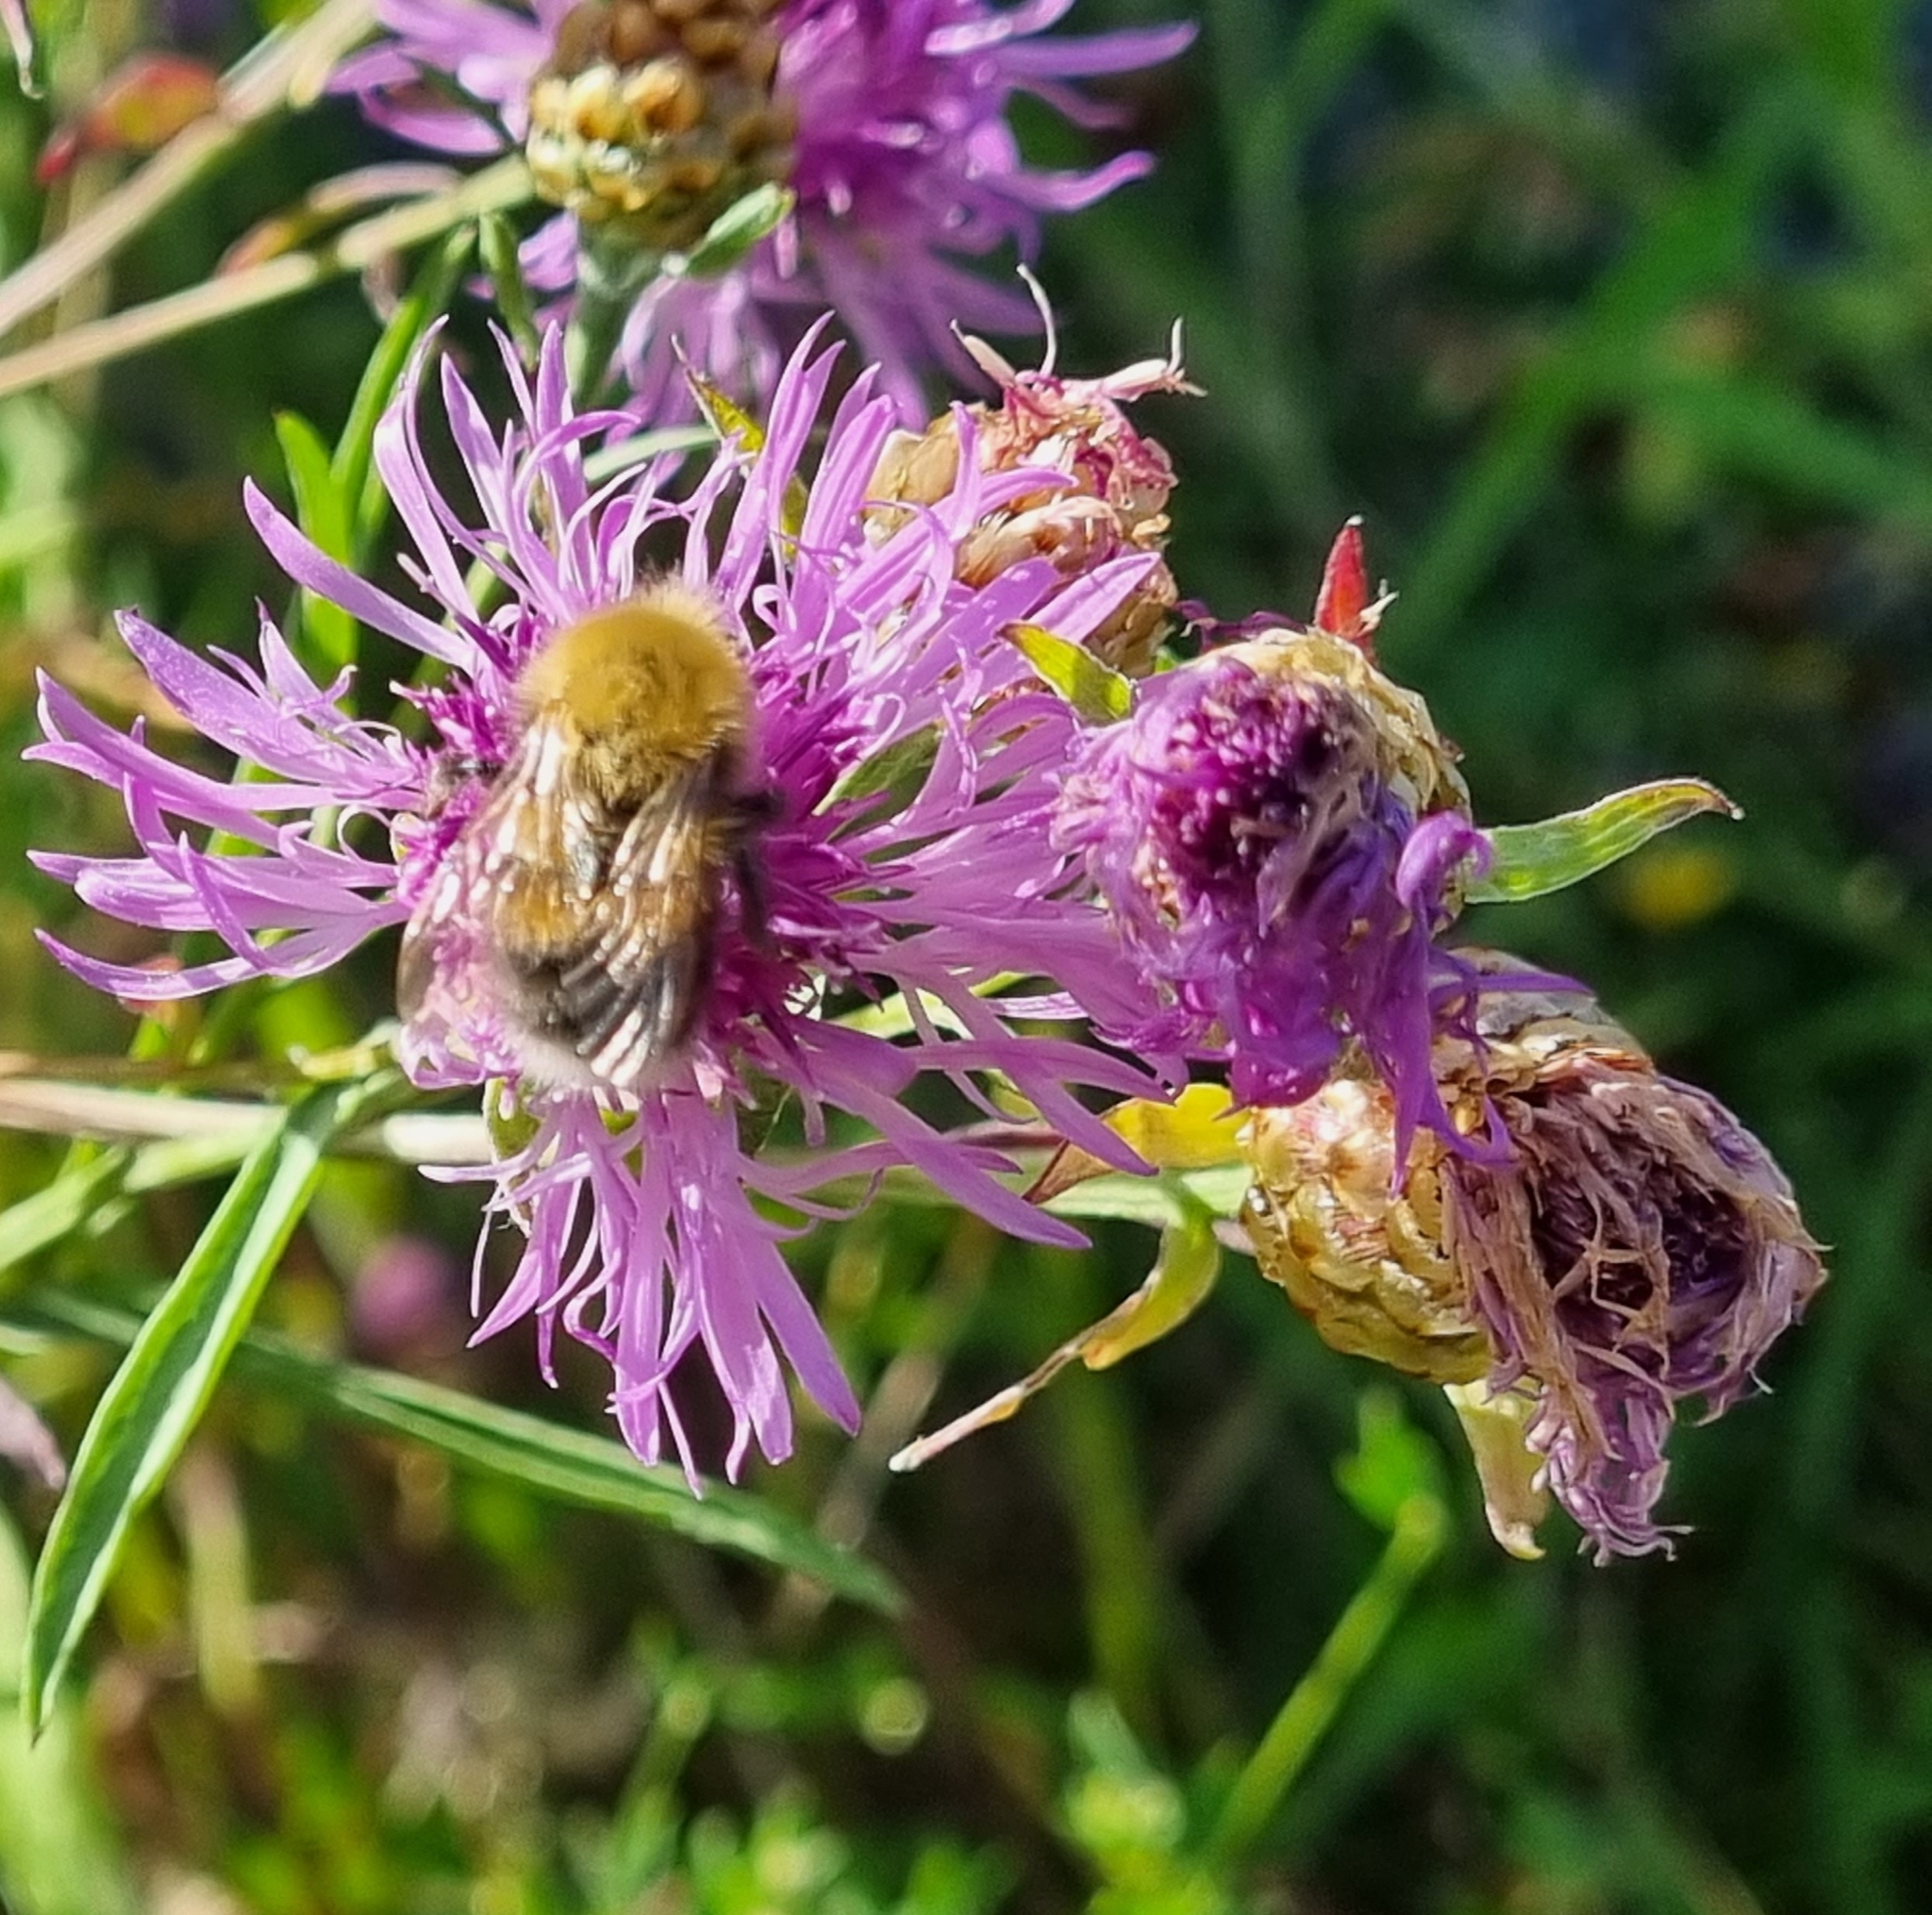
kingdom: Animalia
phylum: Arthropoda
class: Insecta
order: Hymenoptera
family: Apidae
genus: Bombus
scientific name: Bombus hypnorum
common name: New garden bumblebee
